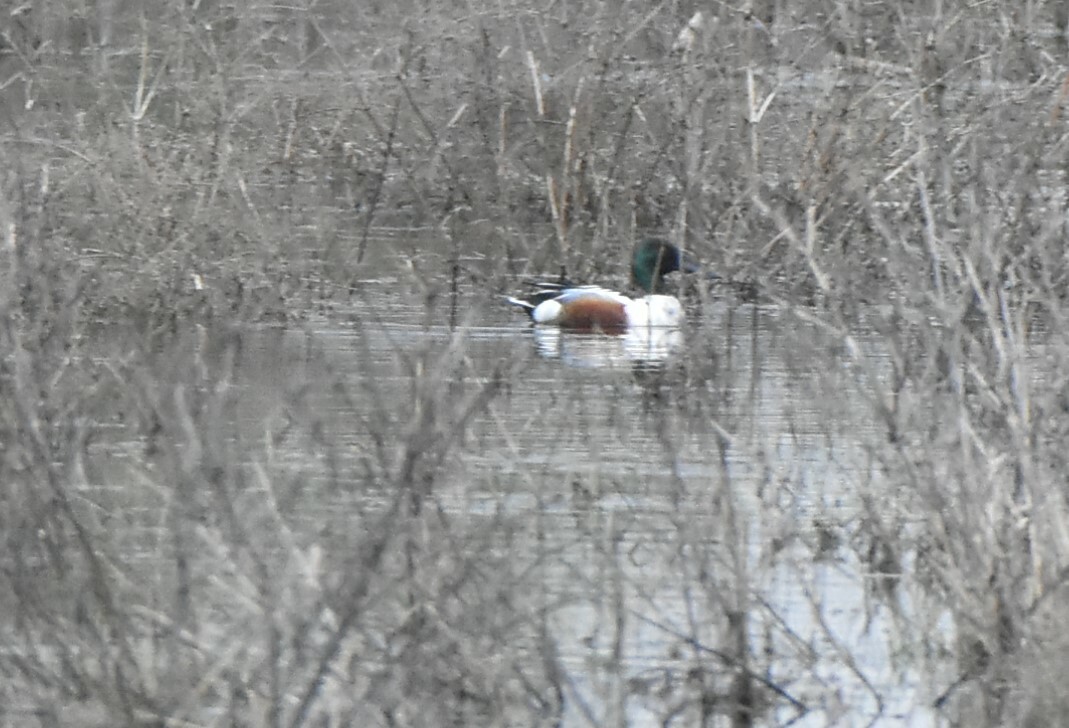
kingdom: Animalia
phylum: Chordata
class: Aves
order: Anseriformes
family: Anatidae
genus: Spatula
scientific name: Spatula clypeata
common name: Northern shoveler
